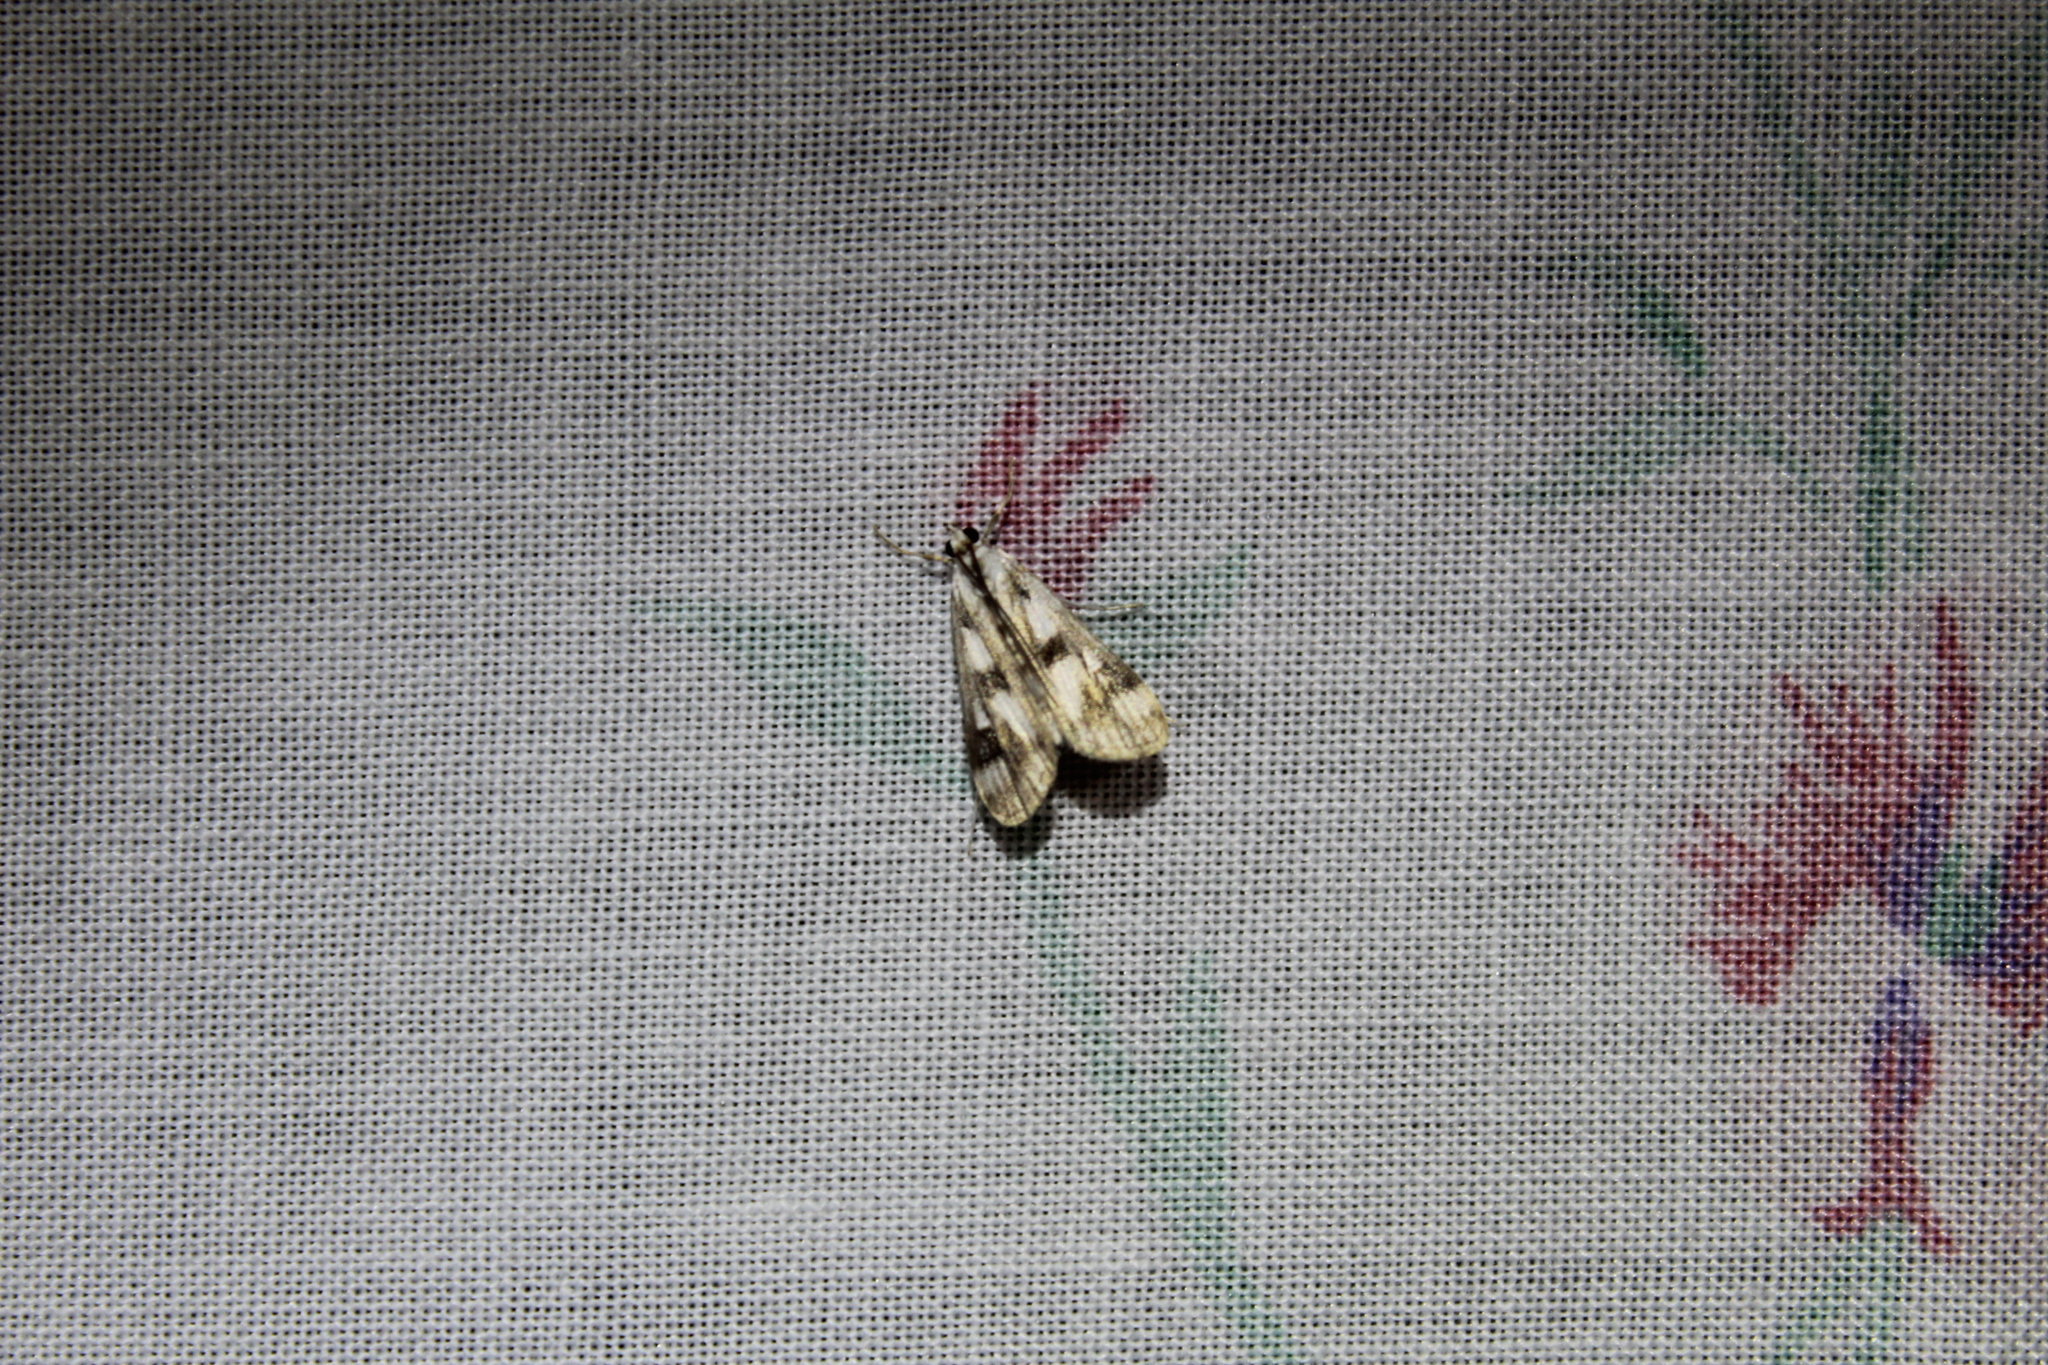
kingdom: Animalia
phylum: Arthropoda
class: Insecta
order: Lepidoptera
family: Crambidae
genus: Parapoynx
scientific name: Parapoynx maculalis
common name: Polymorphic pondweed moth
